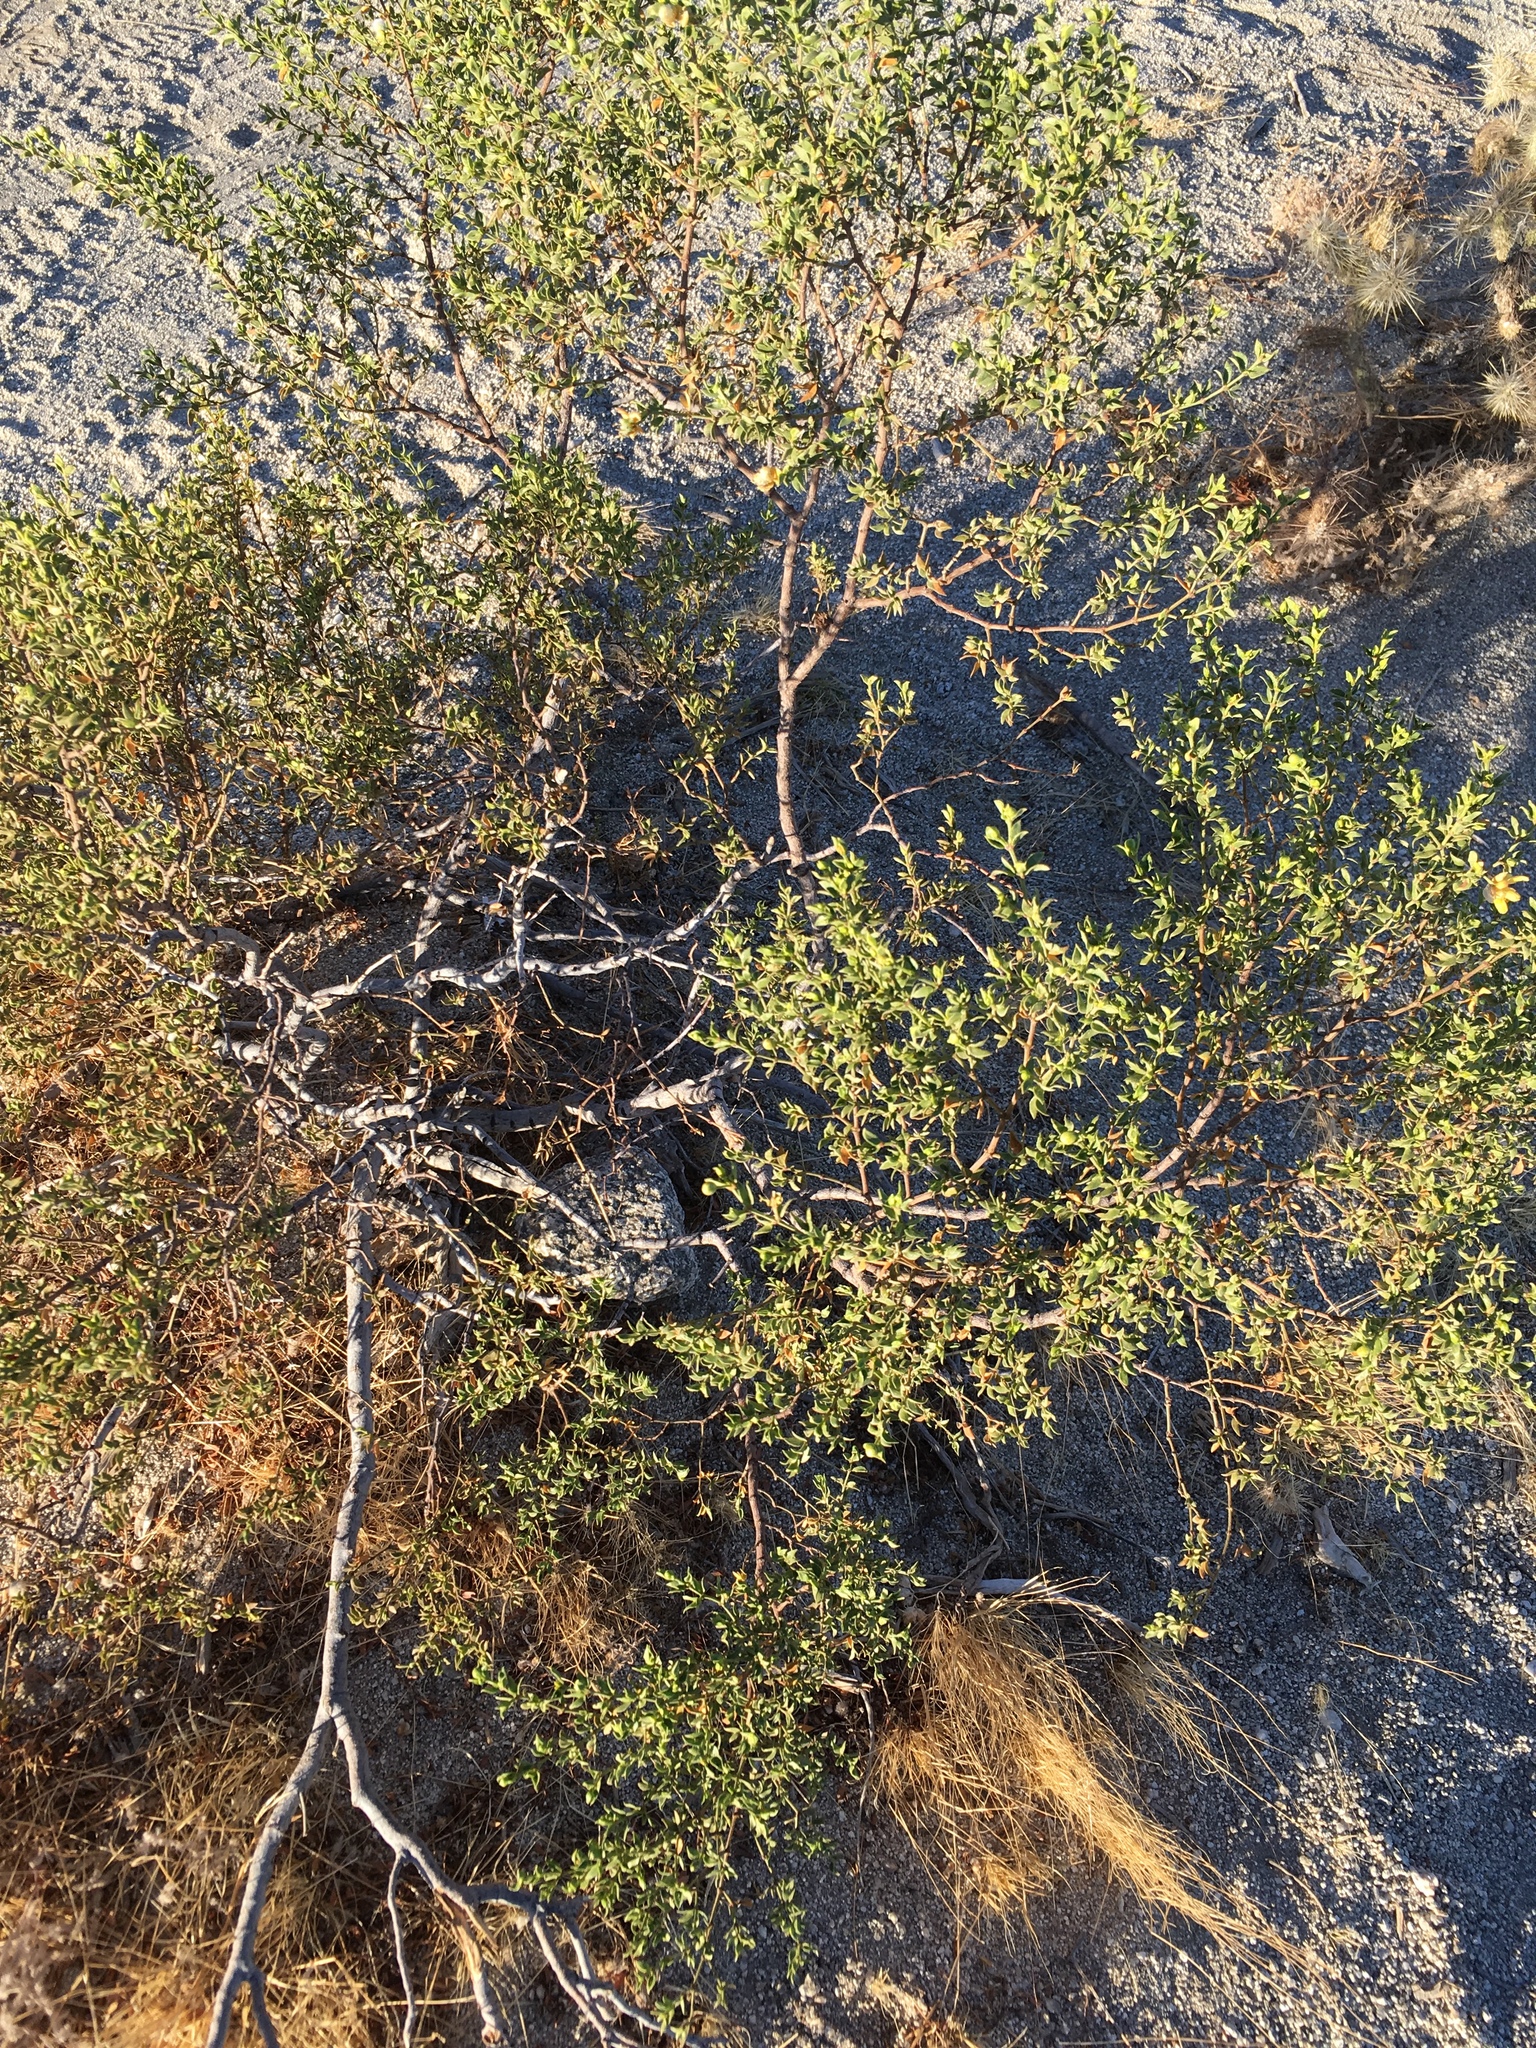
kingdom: Plantae
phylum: Tracheophyta
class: Magnoliopsida
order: Zygophyllales
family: Zygophyllaceae
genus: Larrea
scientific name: Larrea tridentata
